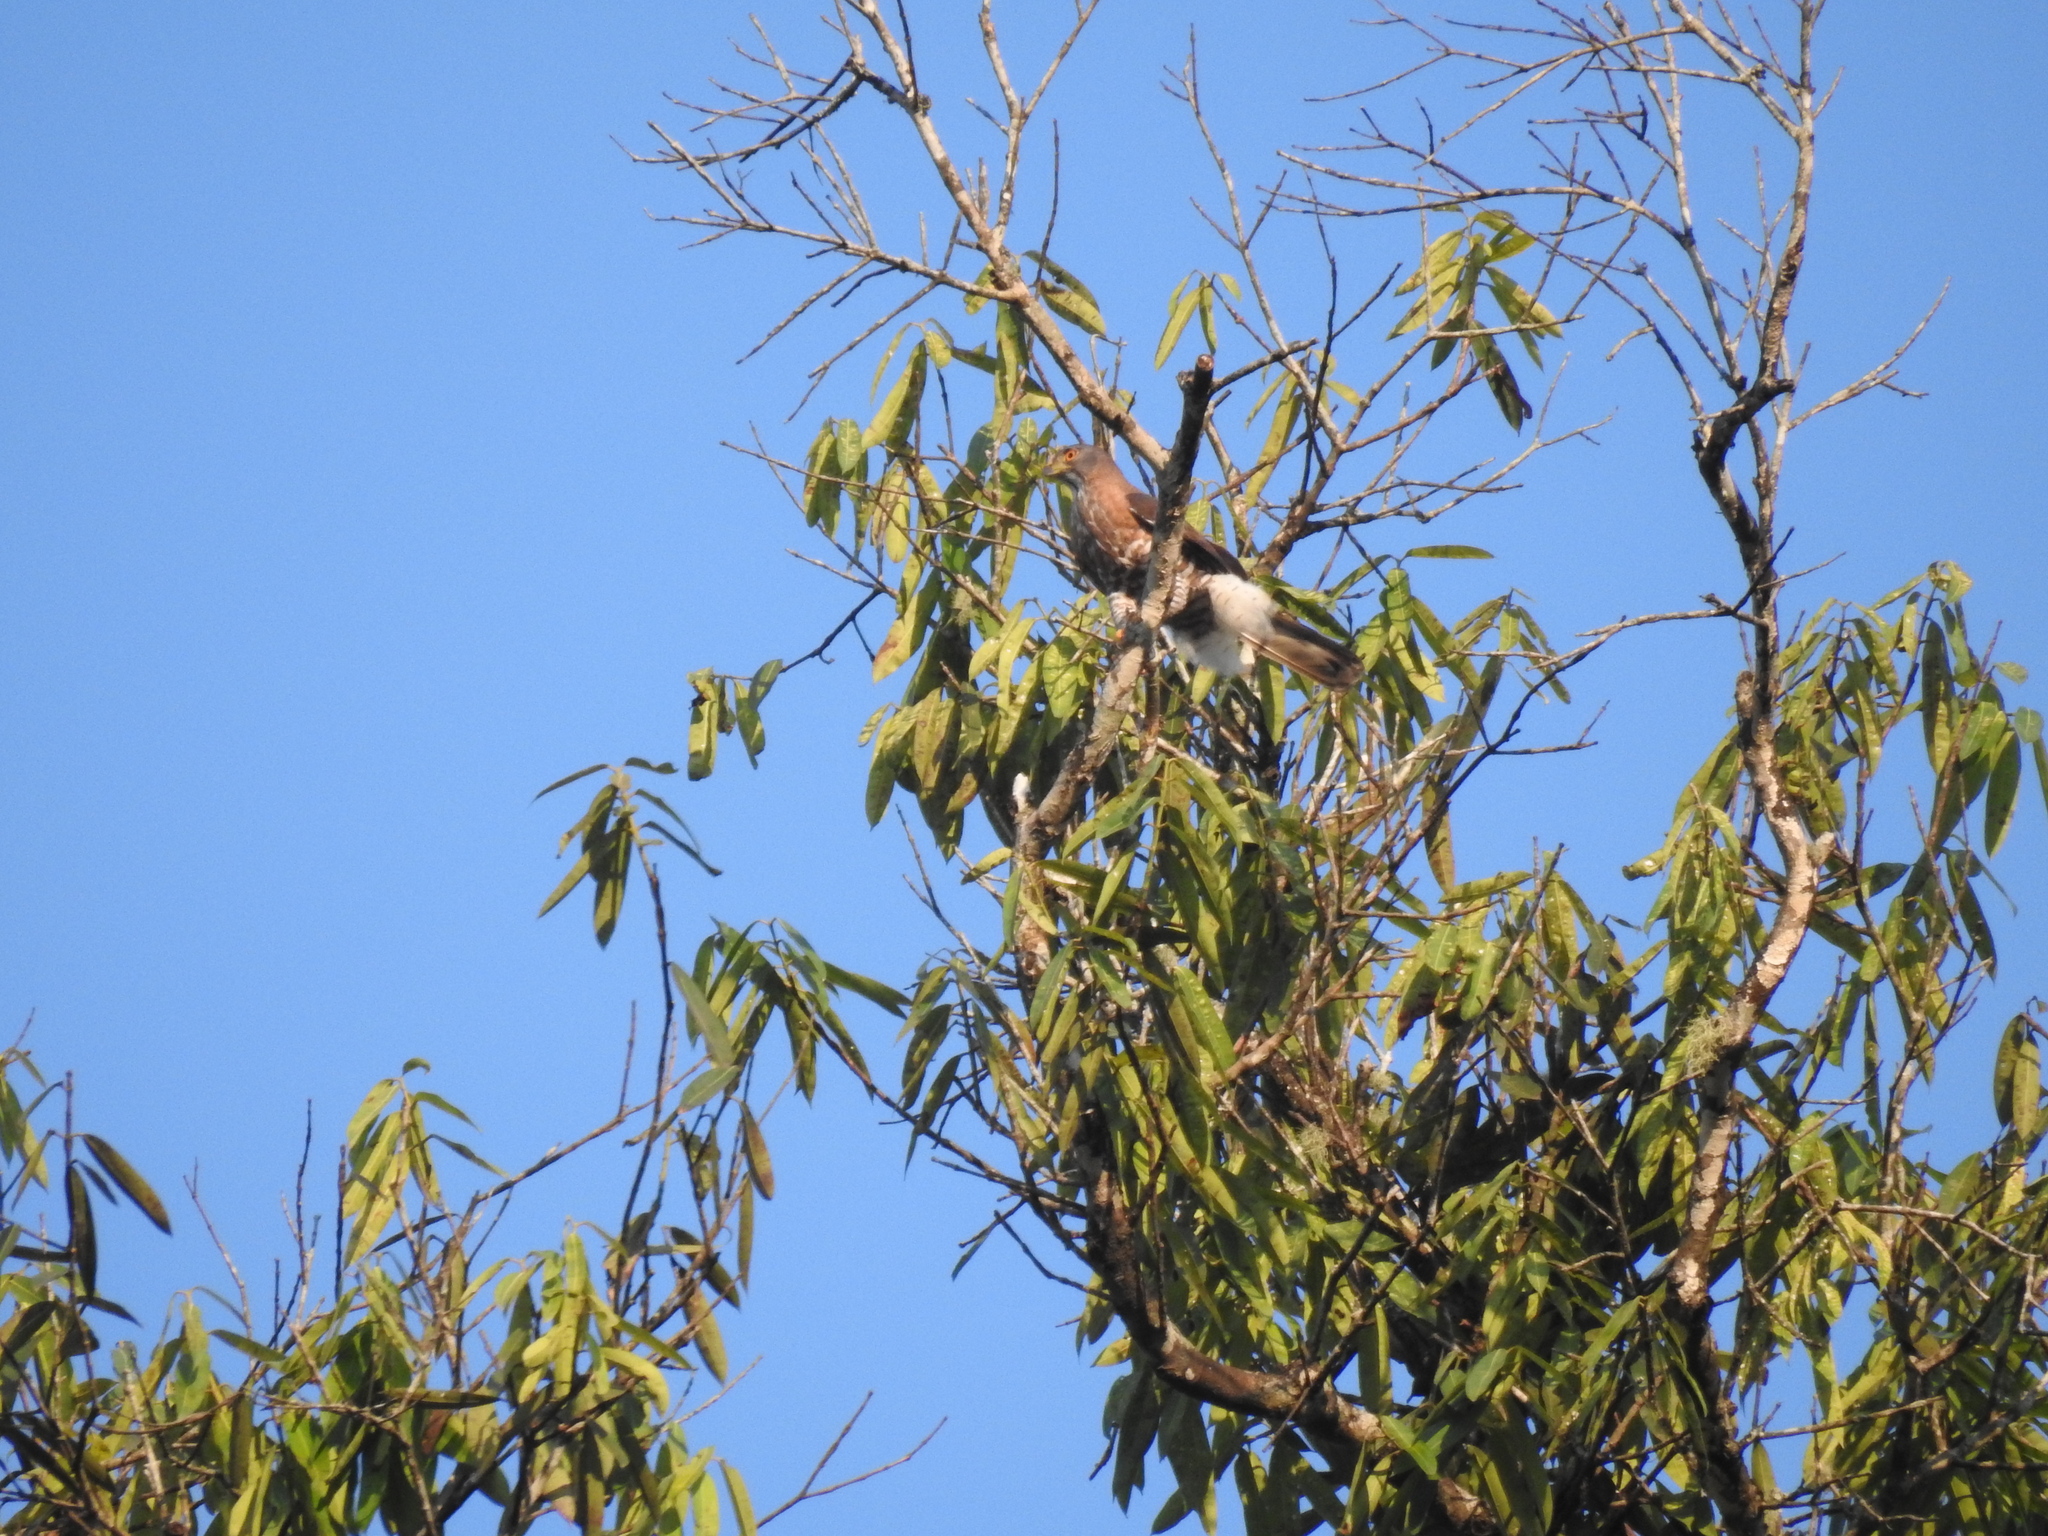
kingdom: Animalia
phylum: Chordata
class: Aves
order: Accipitriformes
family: Accipitridae
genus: Accipiter
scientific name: Accipiter trivirgatus
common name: Crested goshawk
